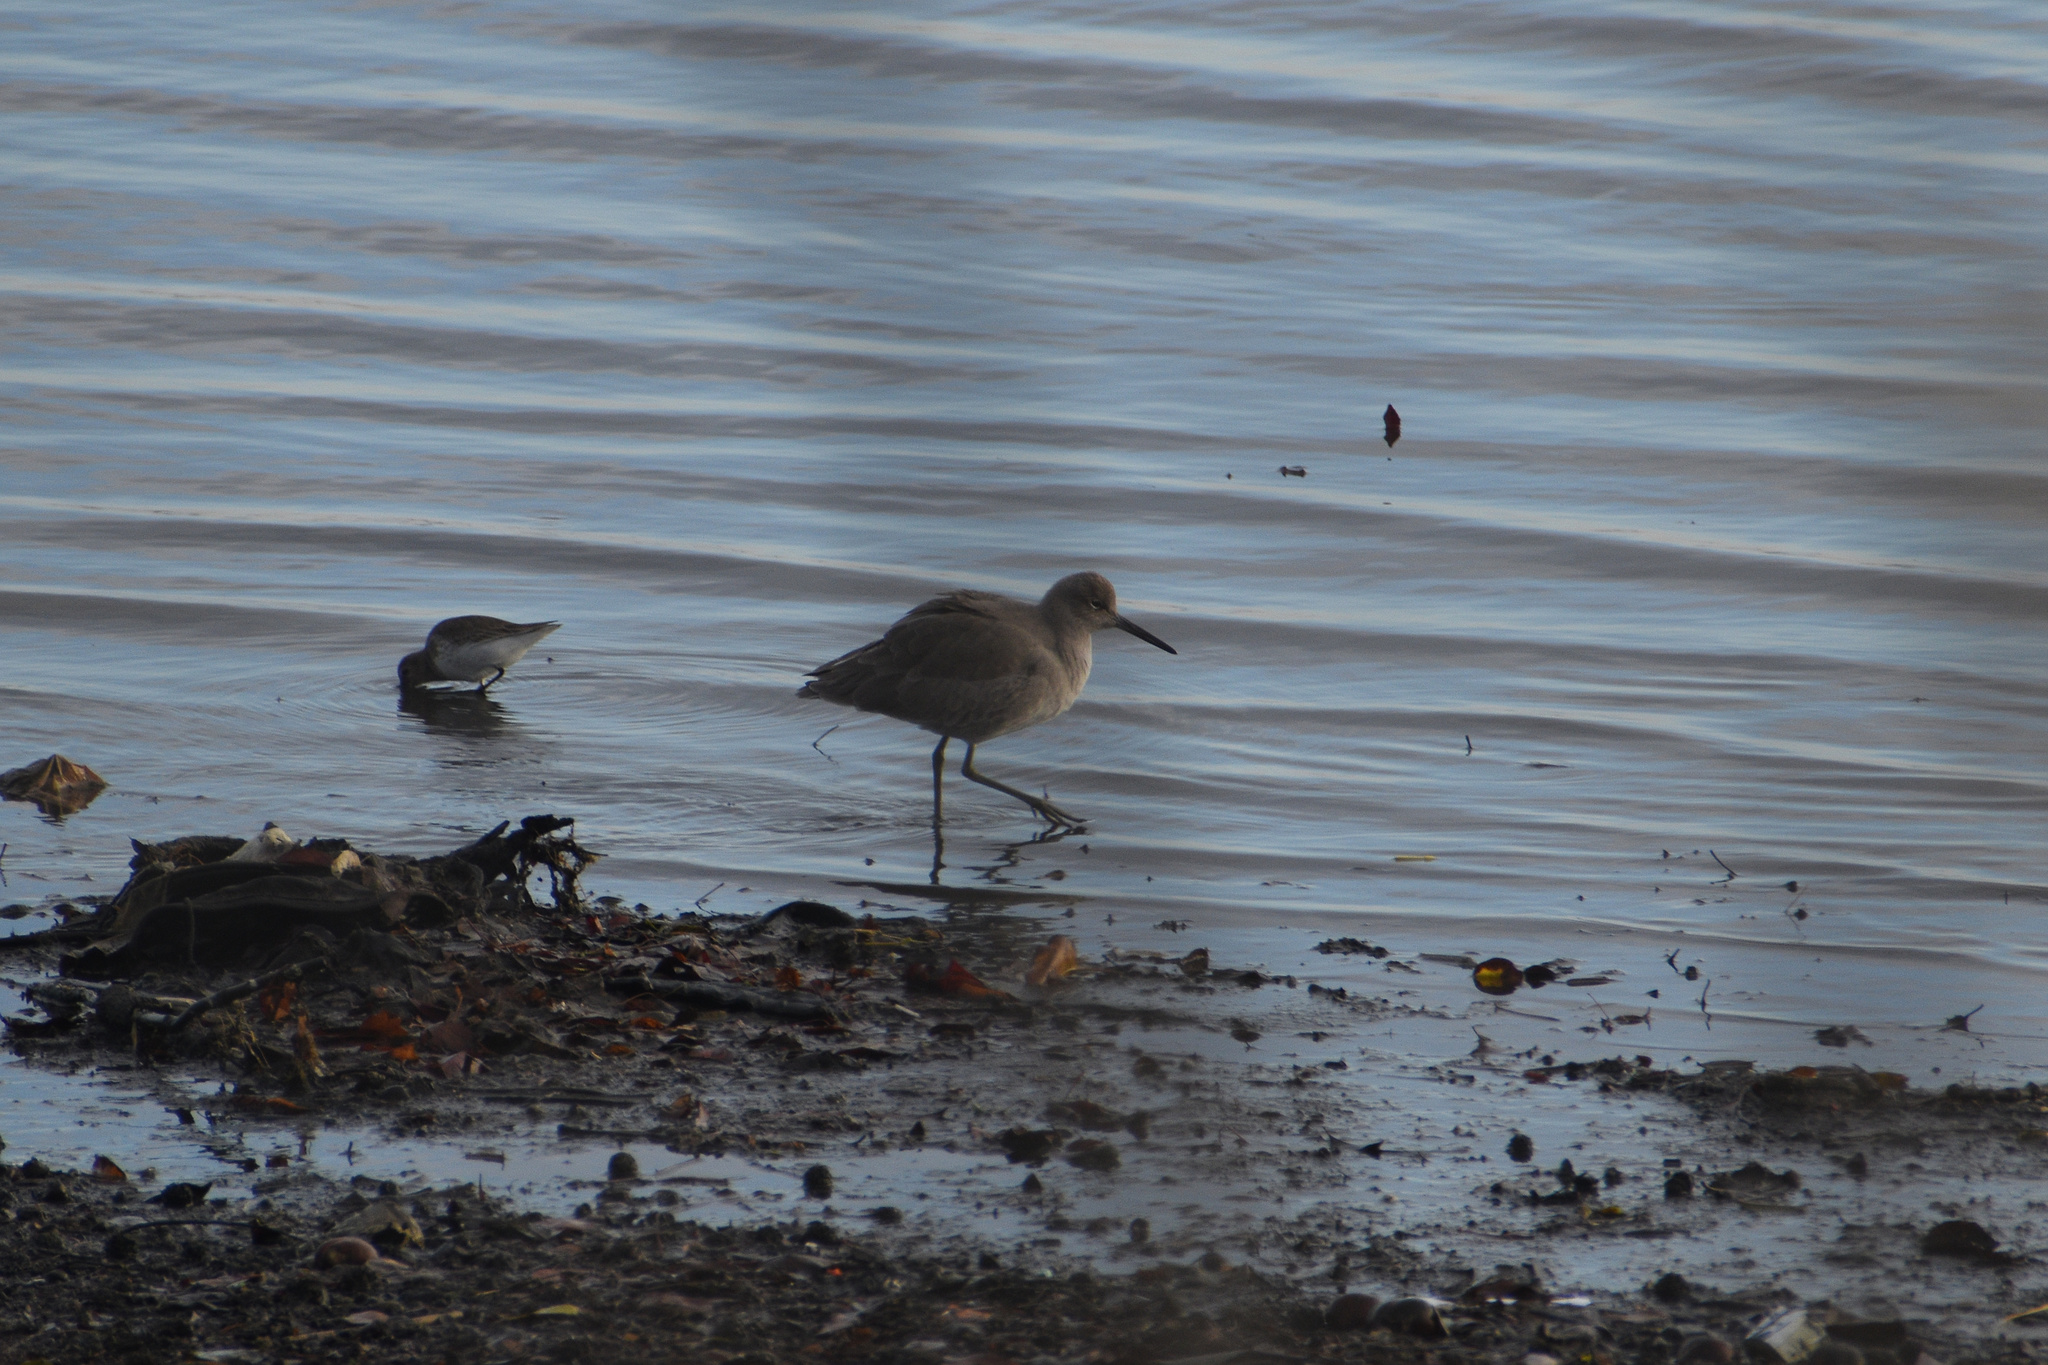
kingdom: Animalia
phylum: Chordata
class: Aves
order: Charadriiformes
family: Scolopacidae
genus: Tringa
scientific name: Tringa semipalmata
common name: Willet
